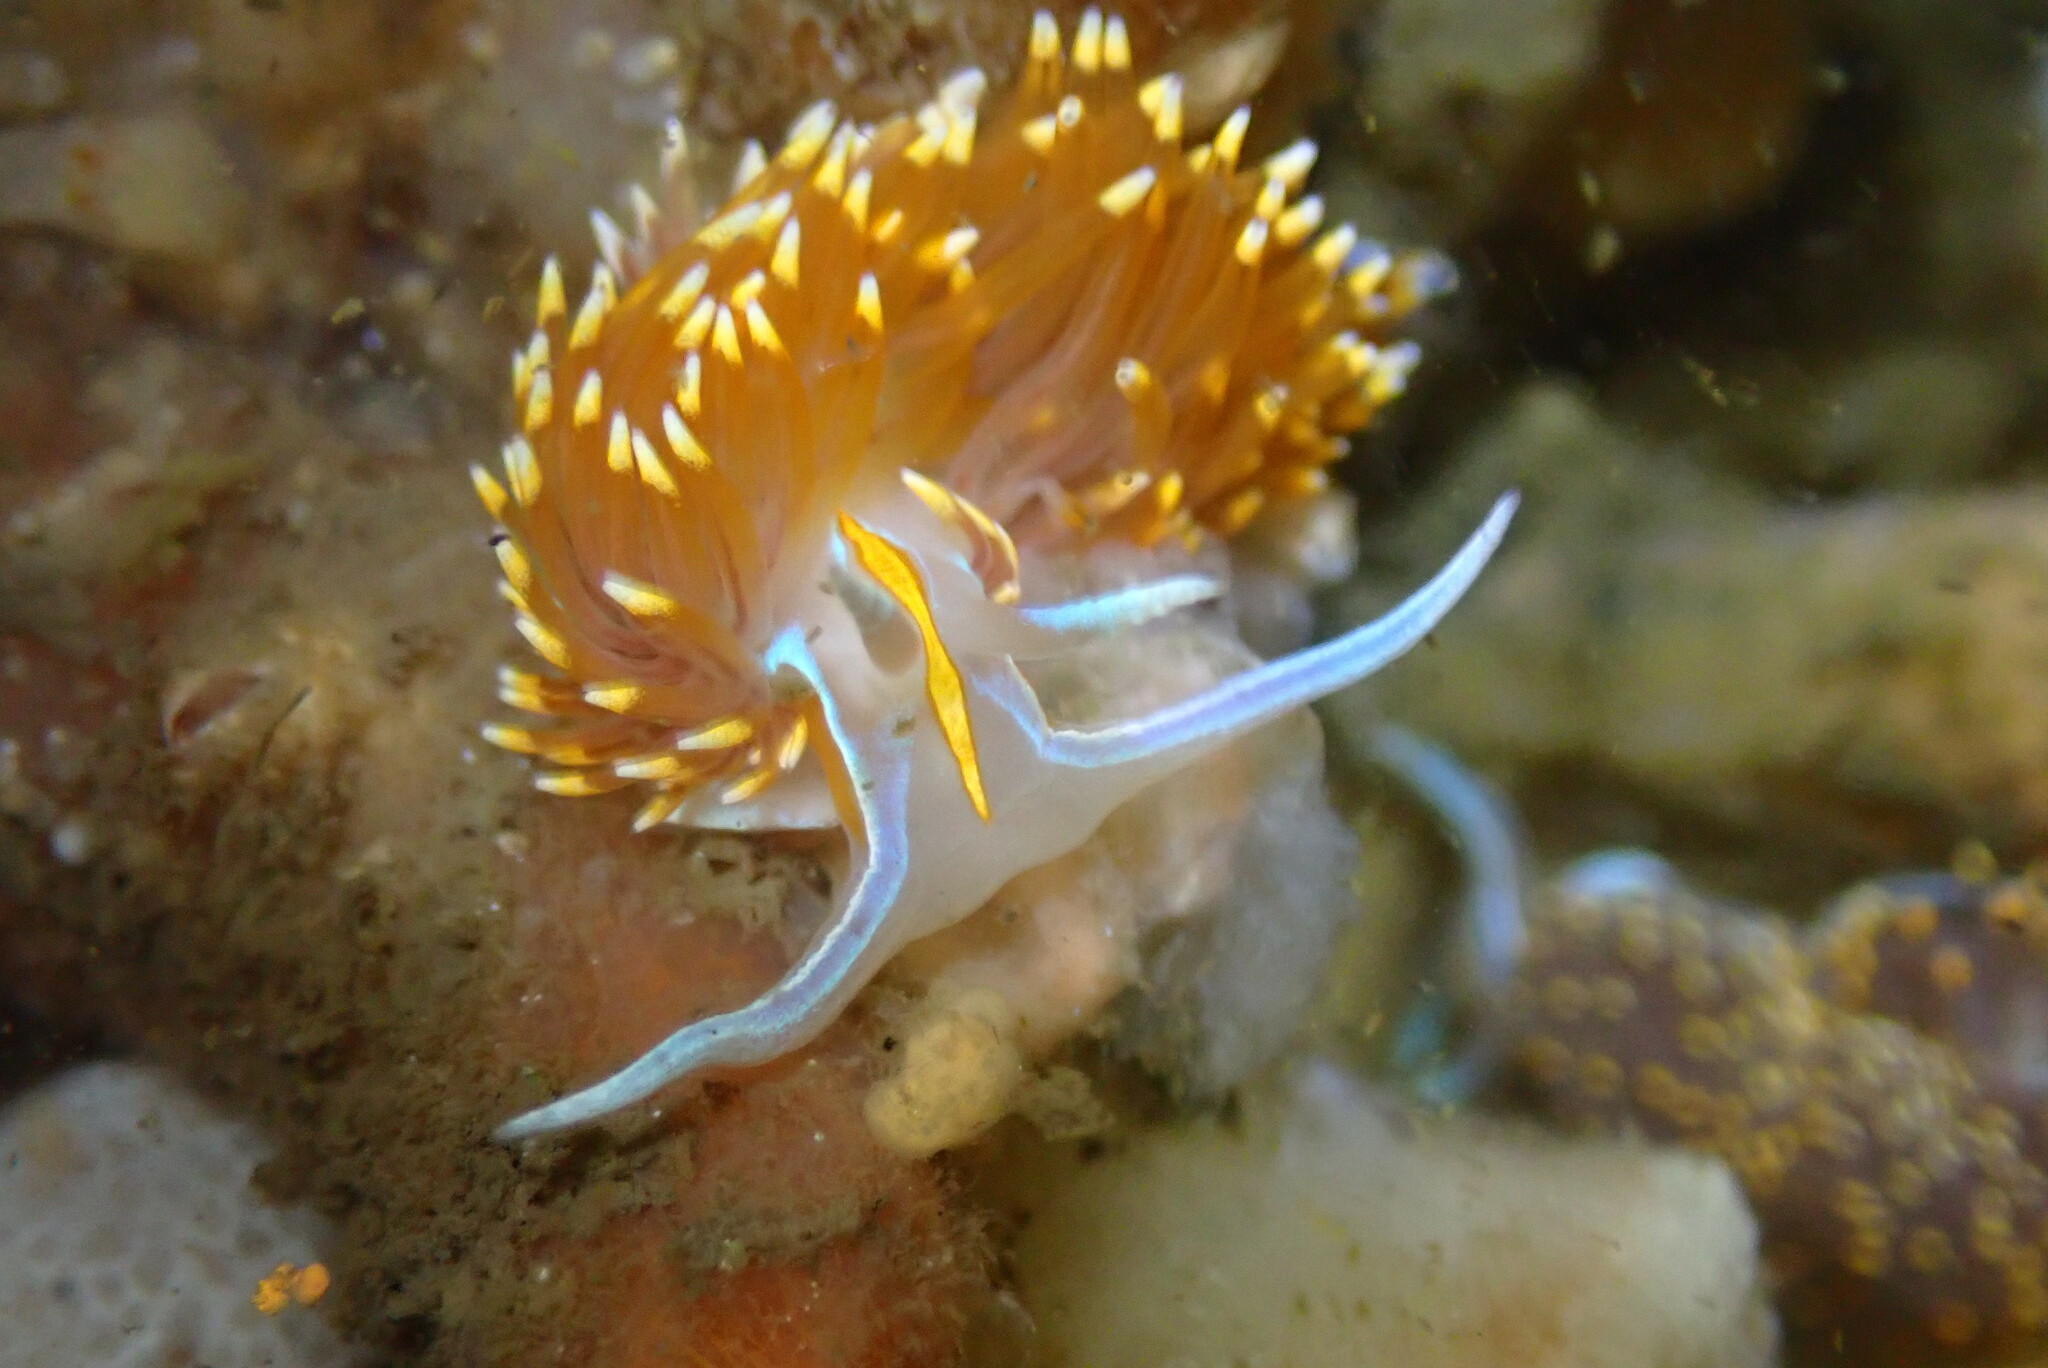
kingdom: Animalia
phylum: Mollusca
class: Gastropoda
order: Nudibranchia
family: Myrrhinidae
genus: Hermissenda
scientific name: Hermissenda opalescens
